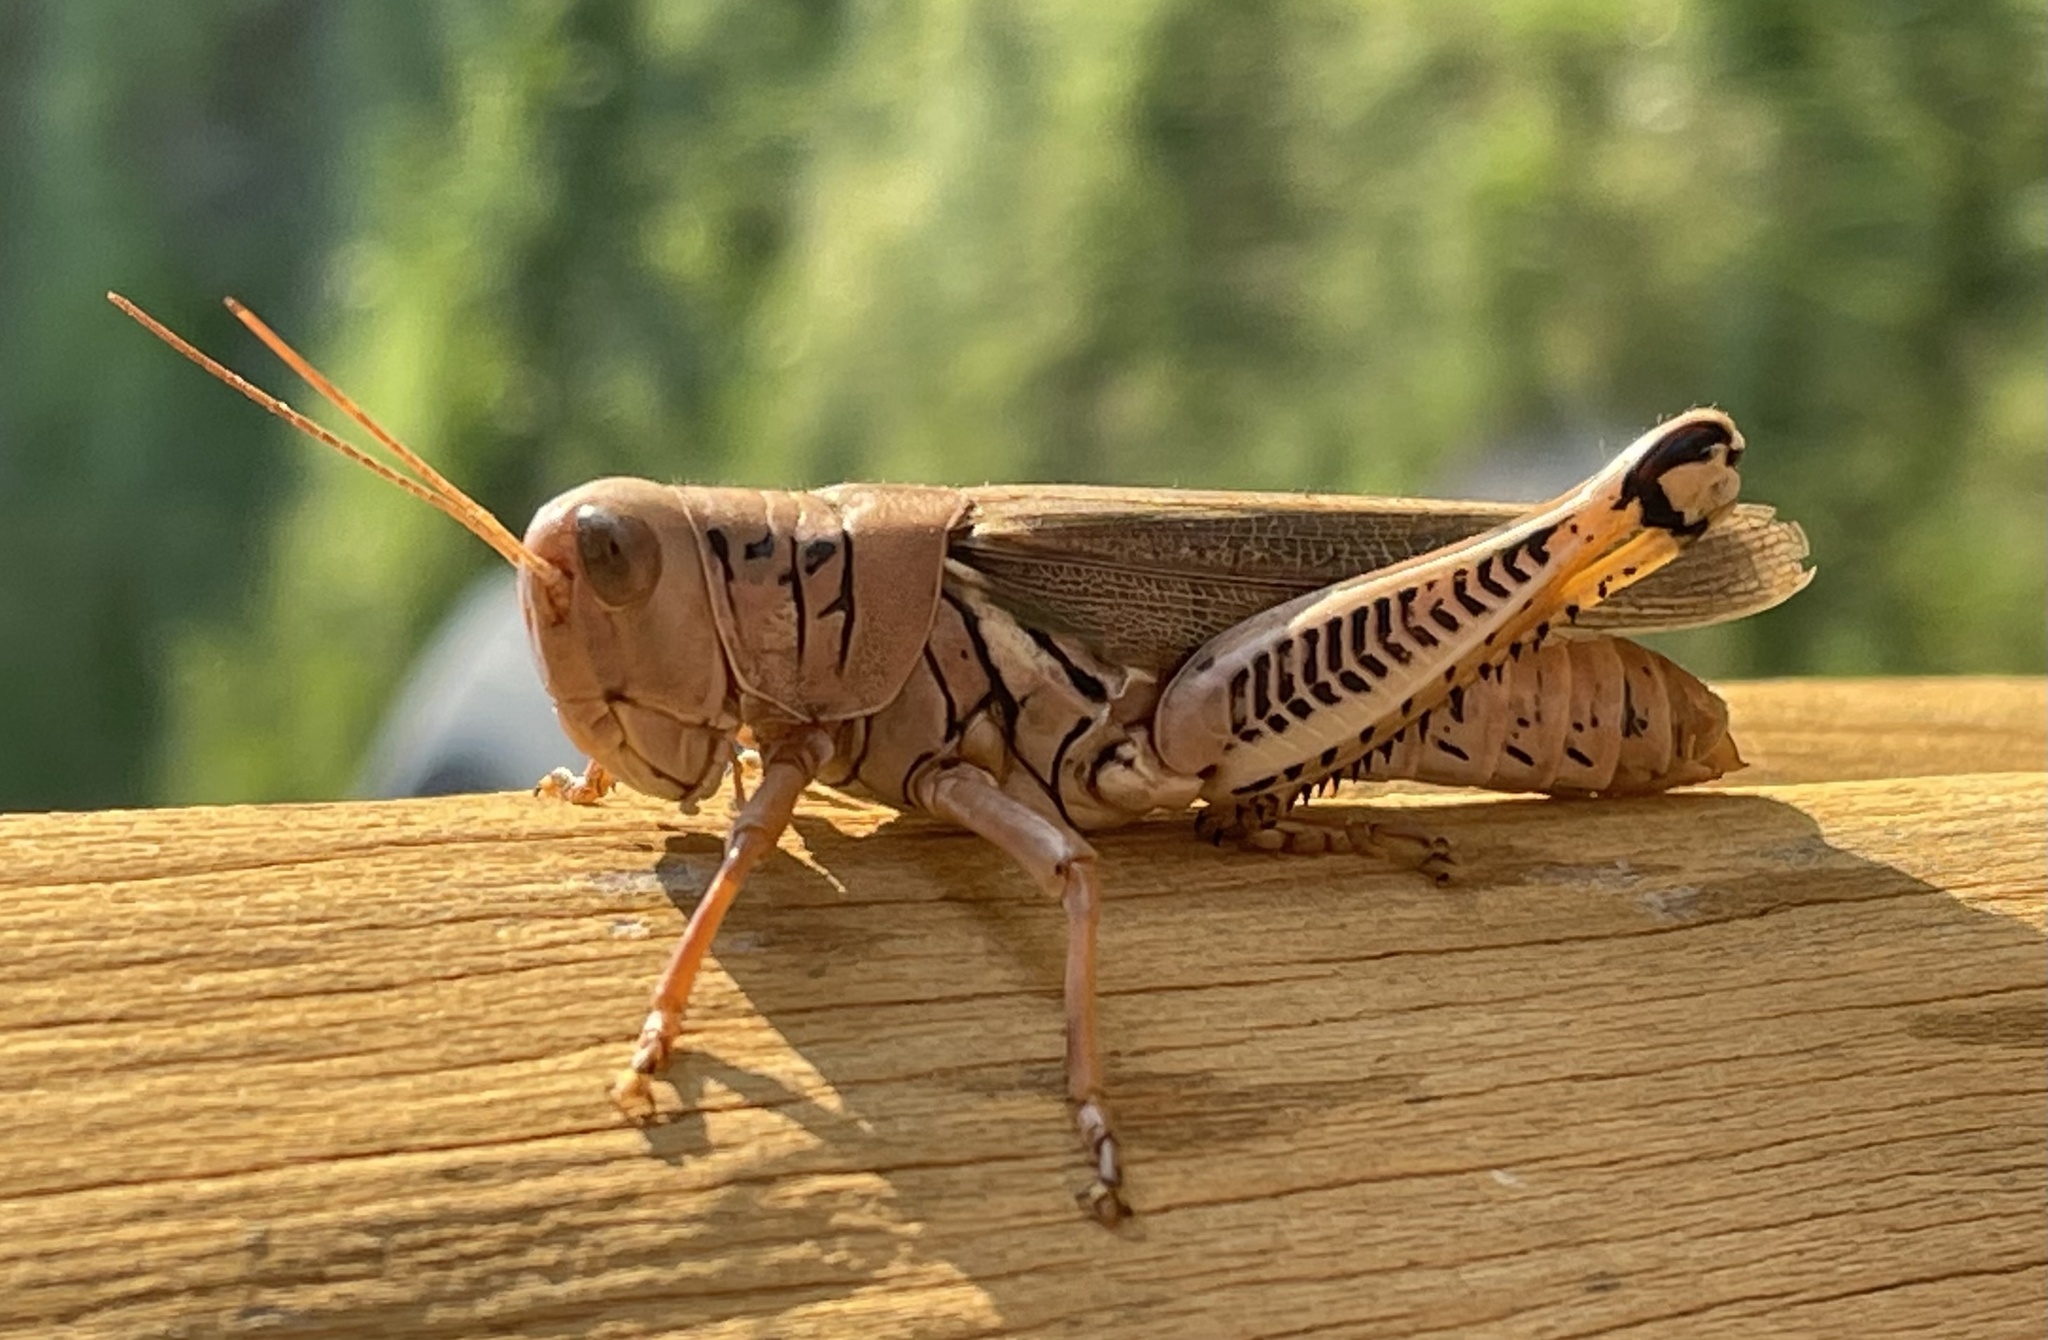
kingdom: Animalia
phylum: Arthropoda
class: Insecta
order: Orthoptera
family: Acrididae
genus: Melanoplus
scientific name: Melanoplus differentialis
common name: Differential grasshopper
